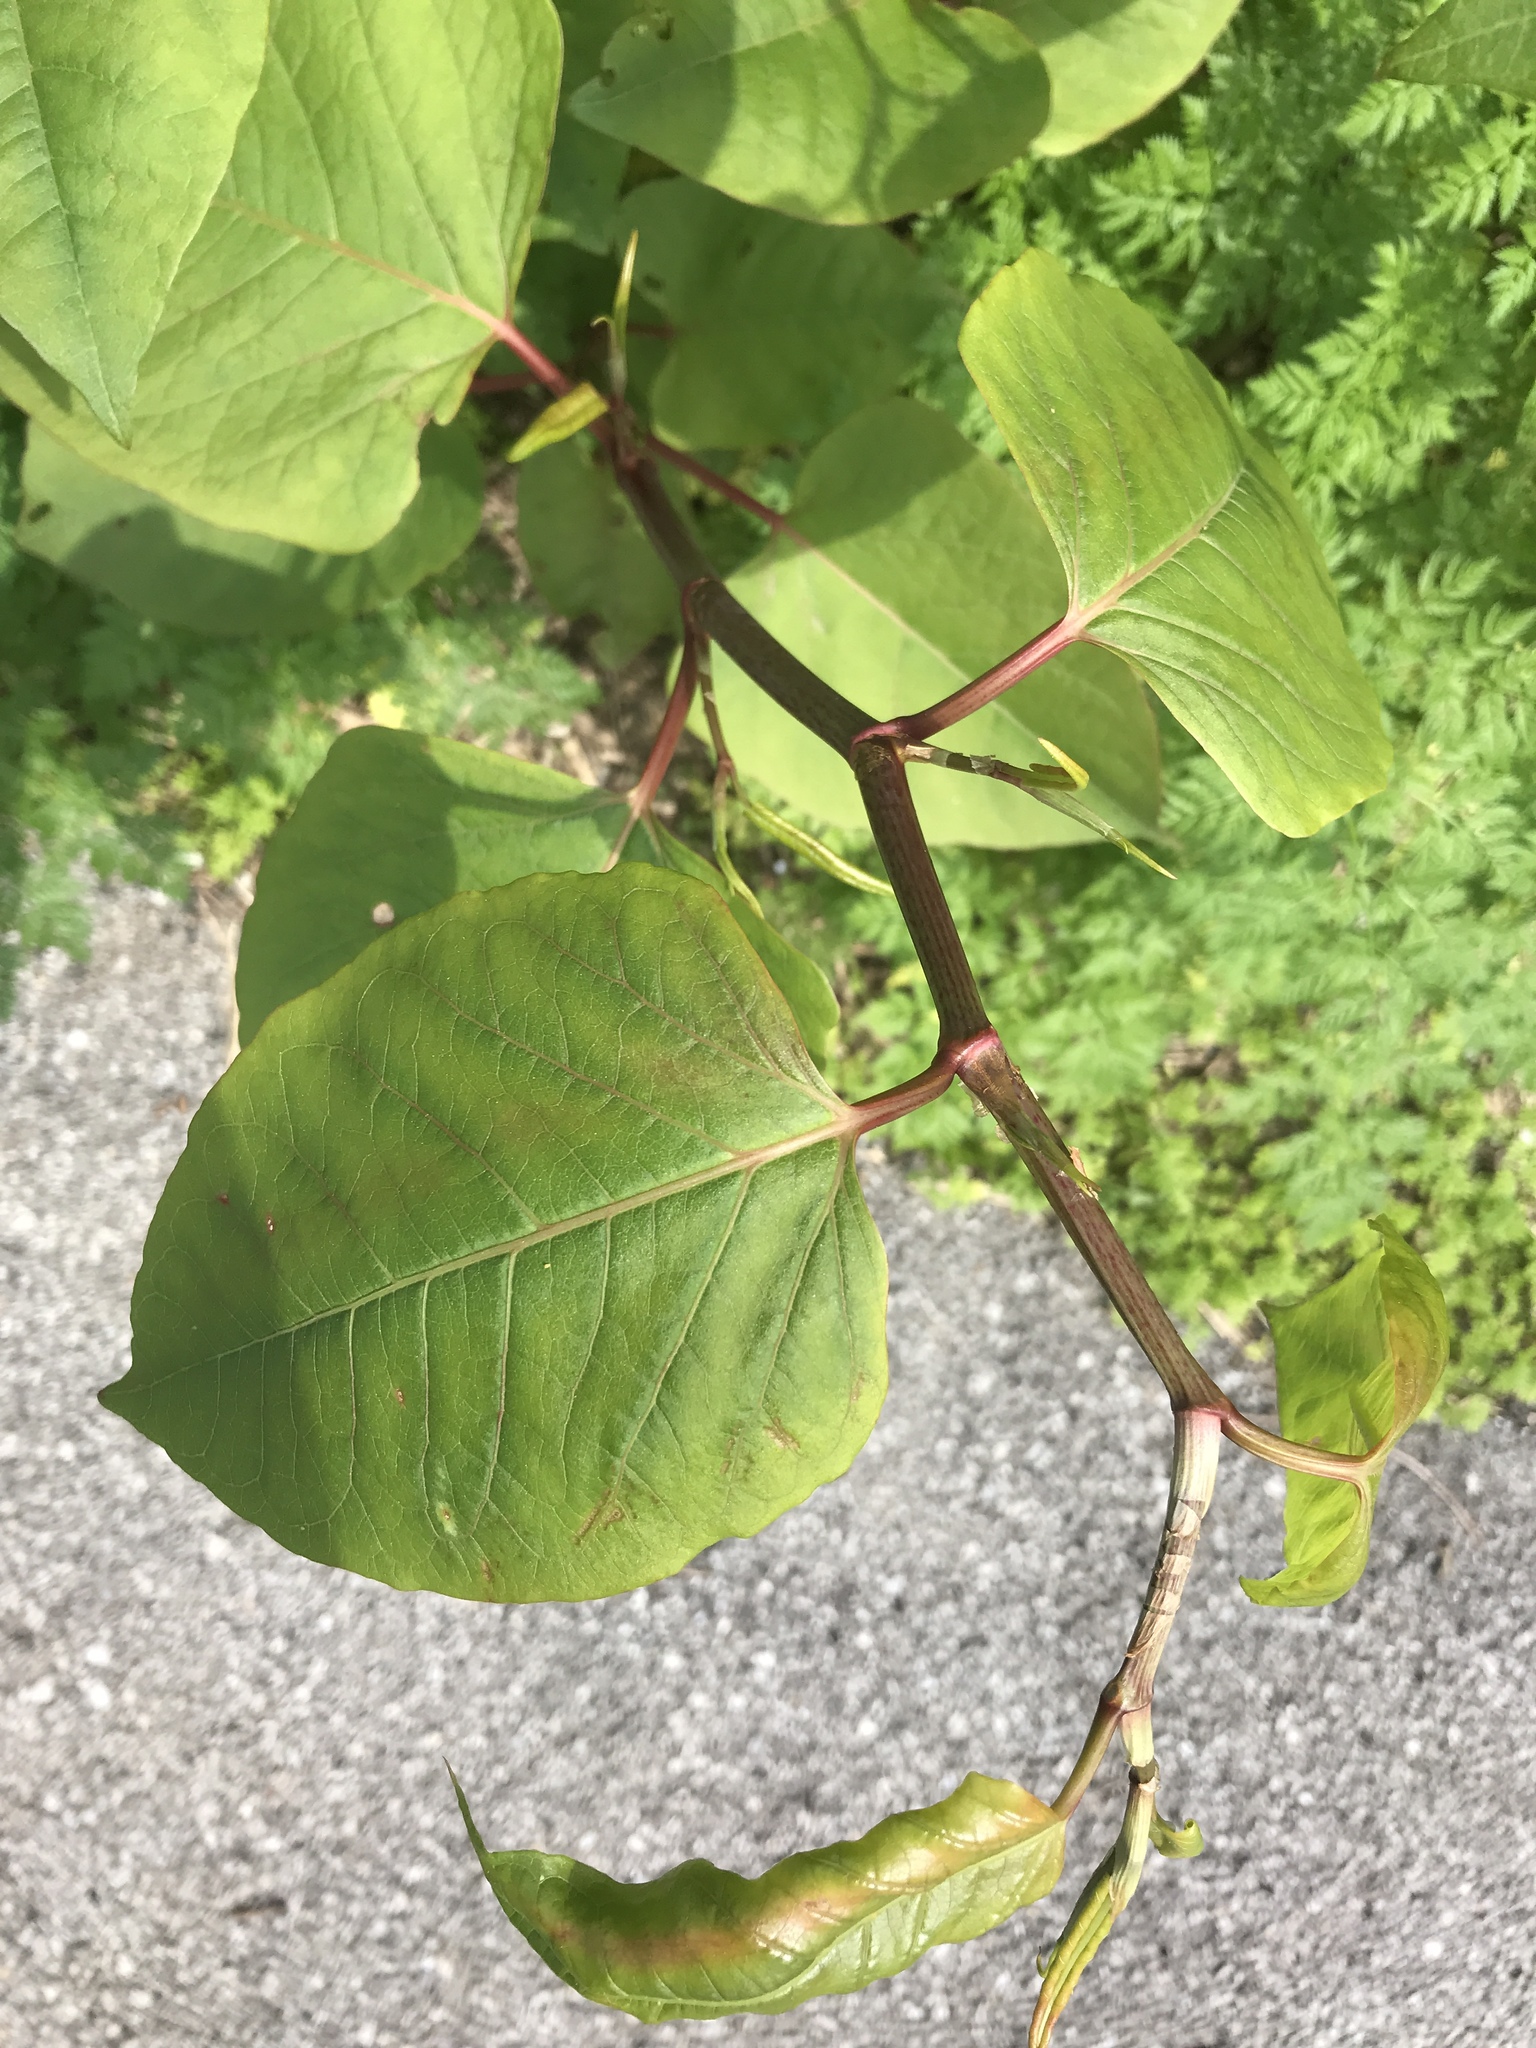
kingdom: Plantae
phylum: Tracheophyta
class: Magnoliopsida
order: Caryophyllales
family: Polygonaceae
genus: Reynoutria
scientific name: Reynoutria japonica
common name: Japanese knotweed
